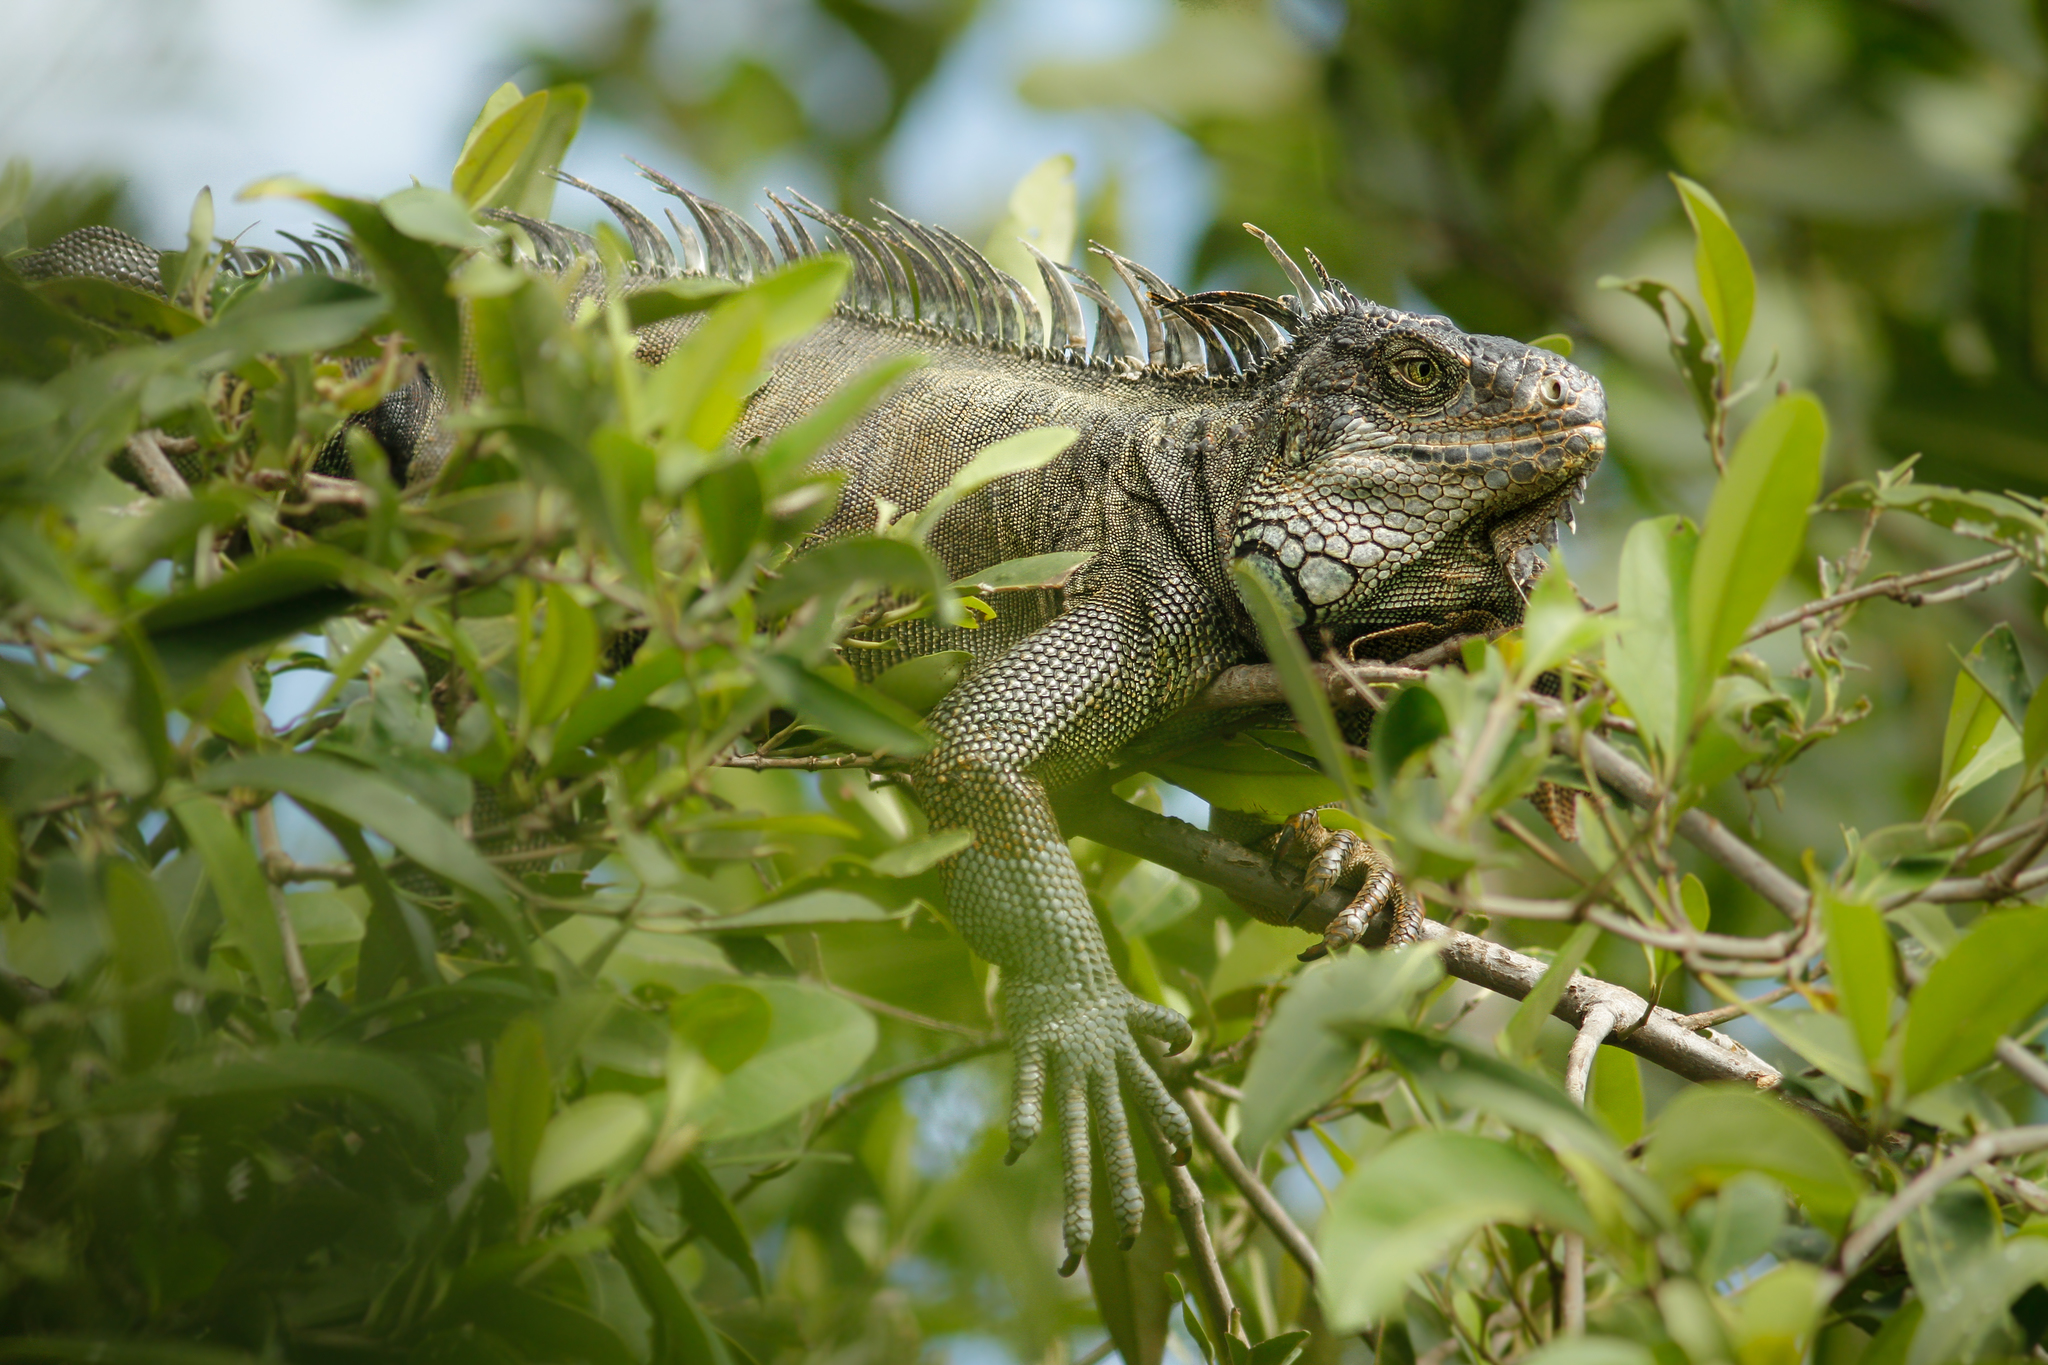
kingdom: Animalia
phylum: Chordata
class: Squamata
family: Iguanidae
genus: Iguana
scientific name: Iguana iguana
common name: Green iguana
